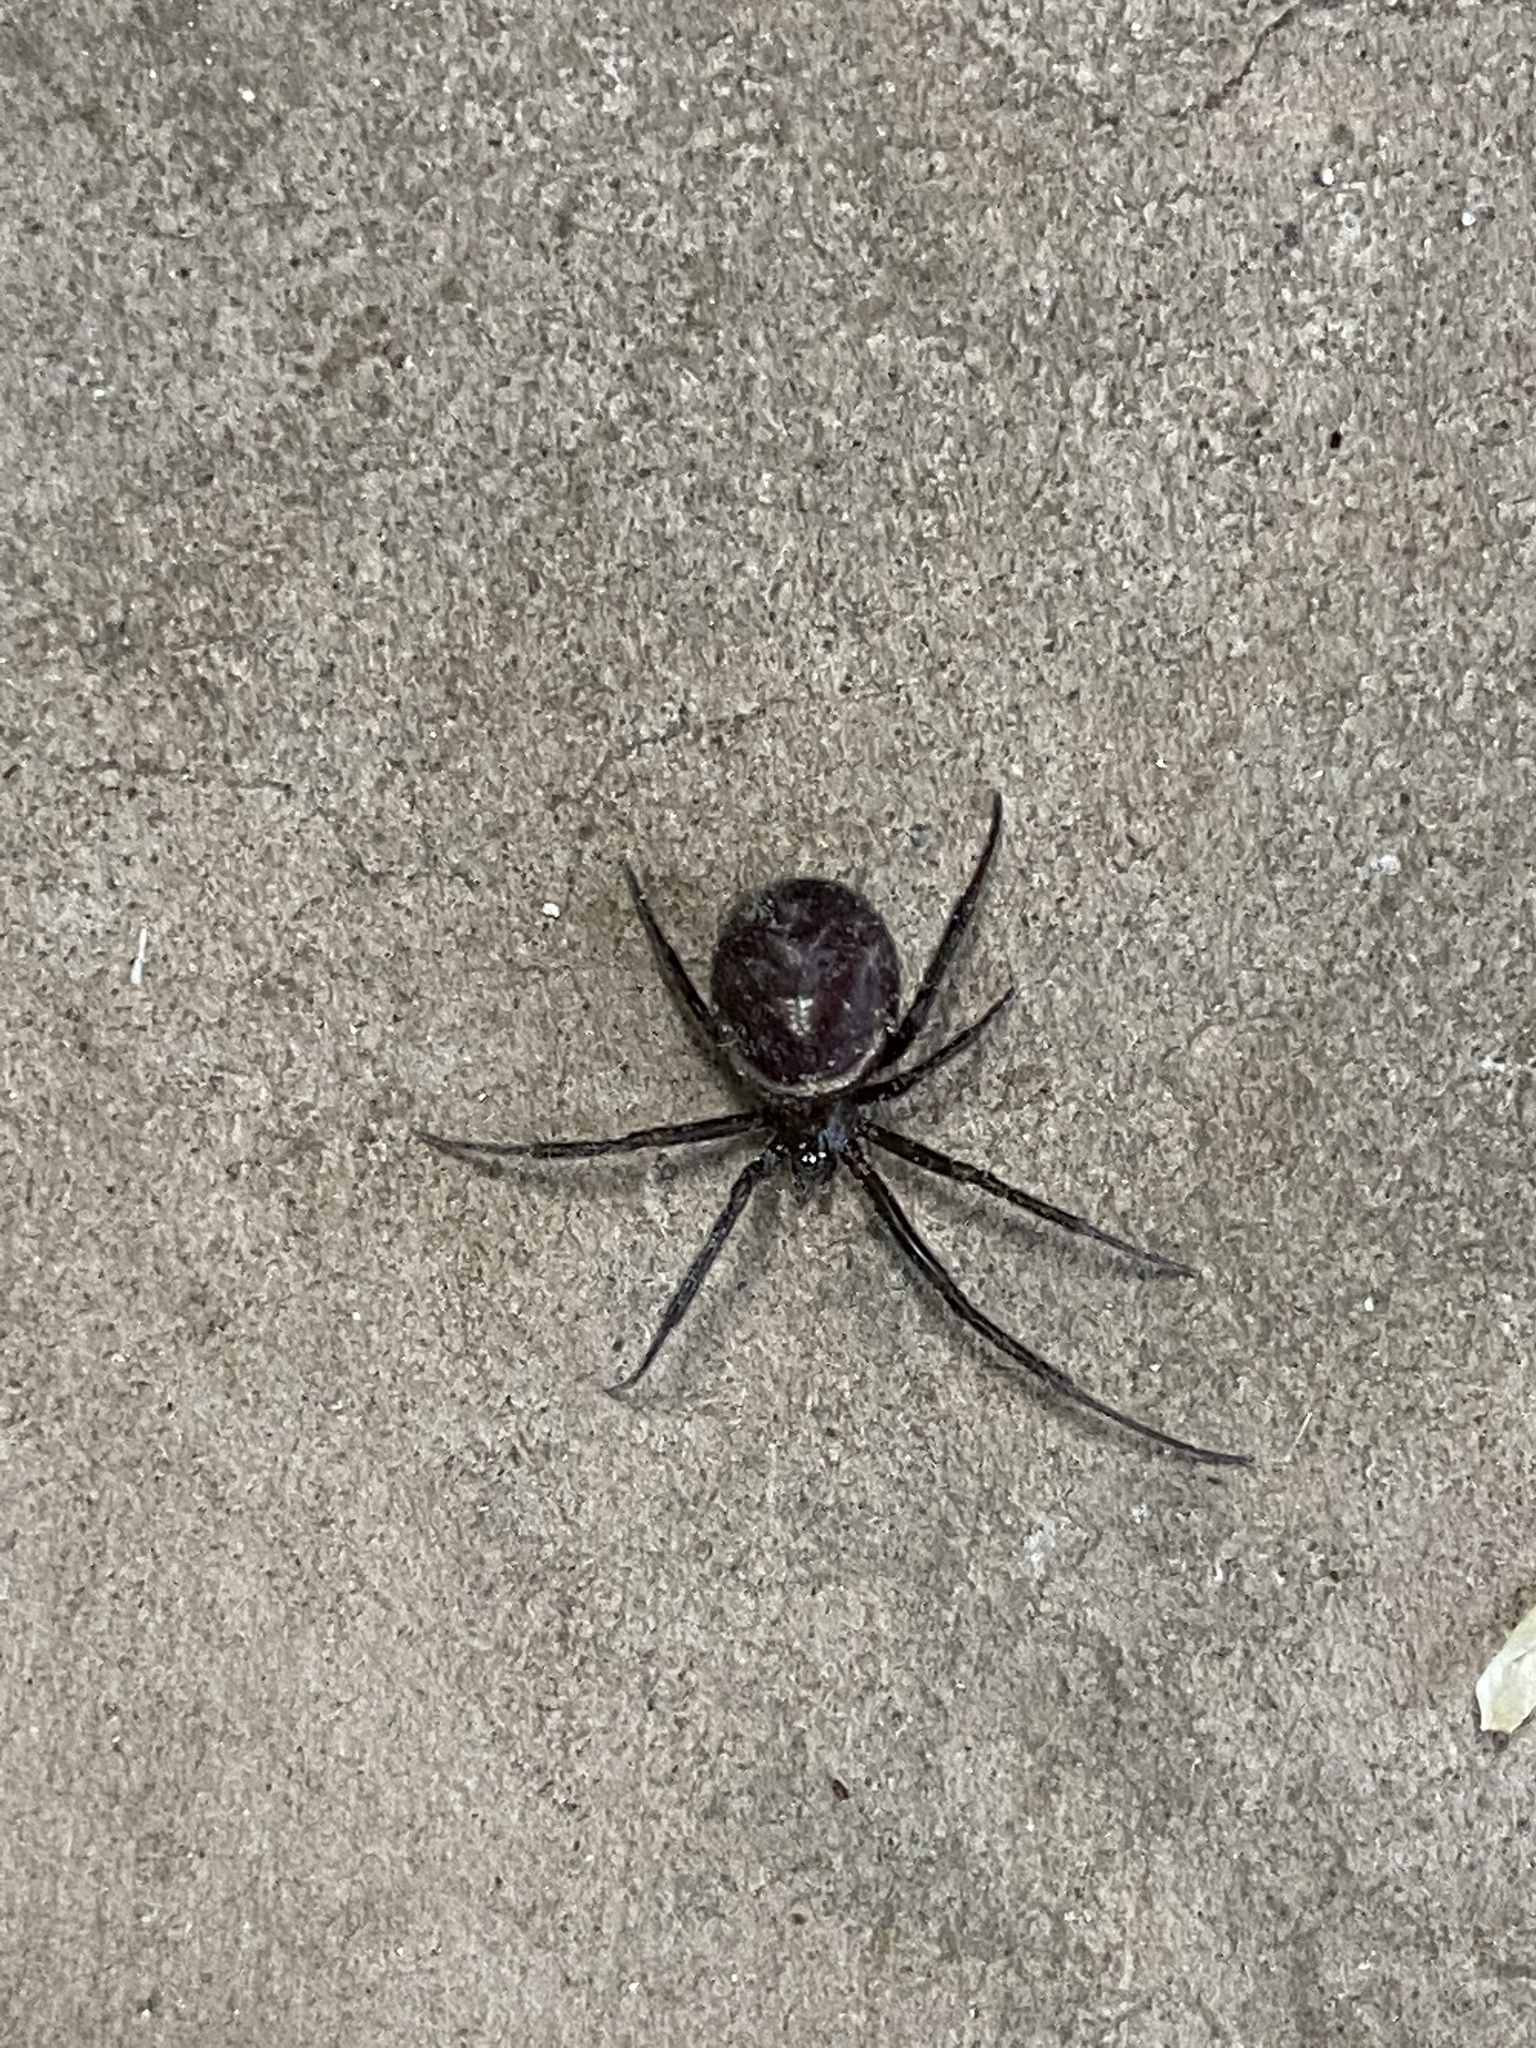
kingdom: Animalia
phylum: Arthropoda
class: Arachnida
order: Araneae
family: Theridiidae
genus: Steatoda
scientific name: Steatoda grossa
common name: False black widow
